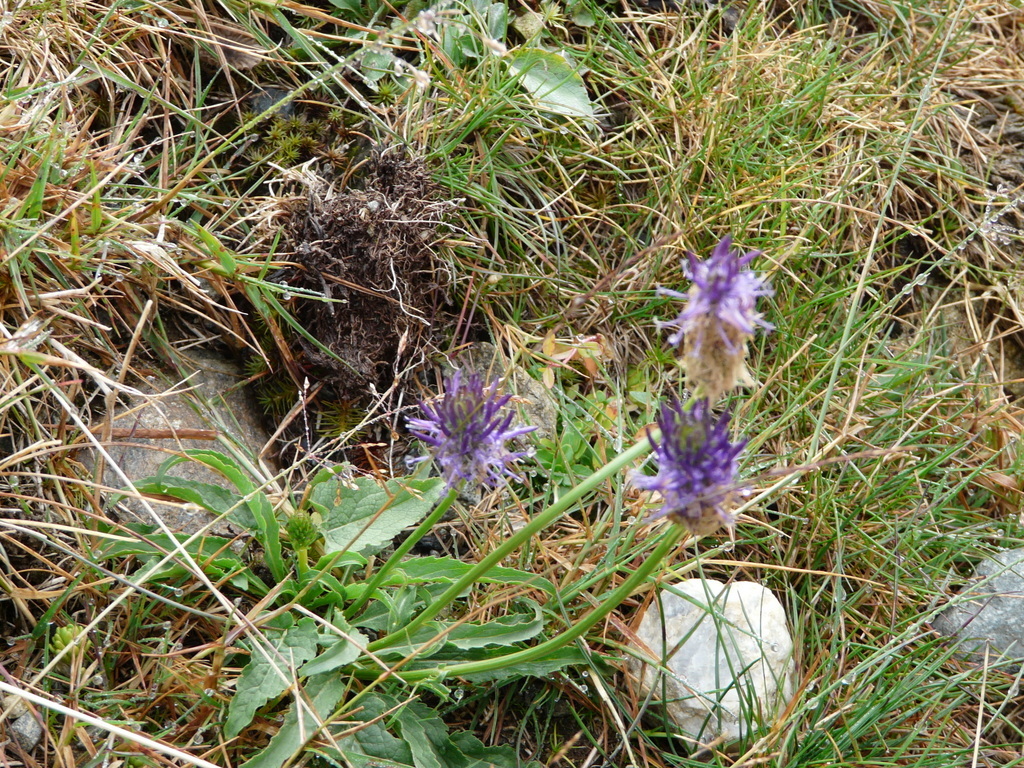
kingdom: Plantae
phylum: Tracheophyta
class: Magnoliopsida
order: Asterales
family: Campanulaceae
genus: Phyteuma
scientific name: Phyteuma betonicifolium
